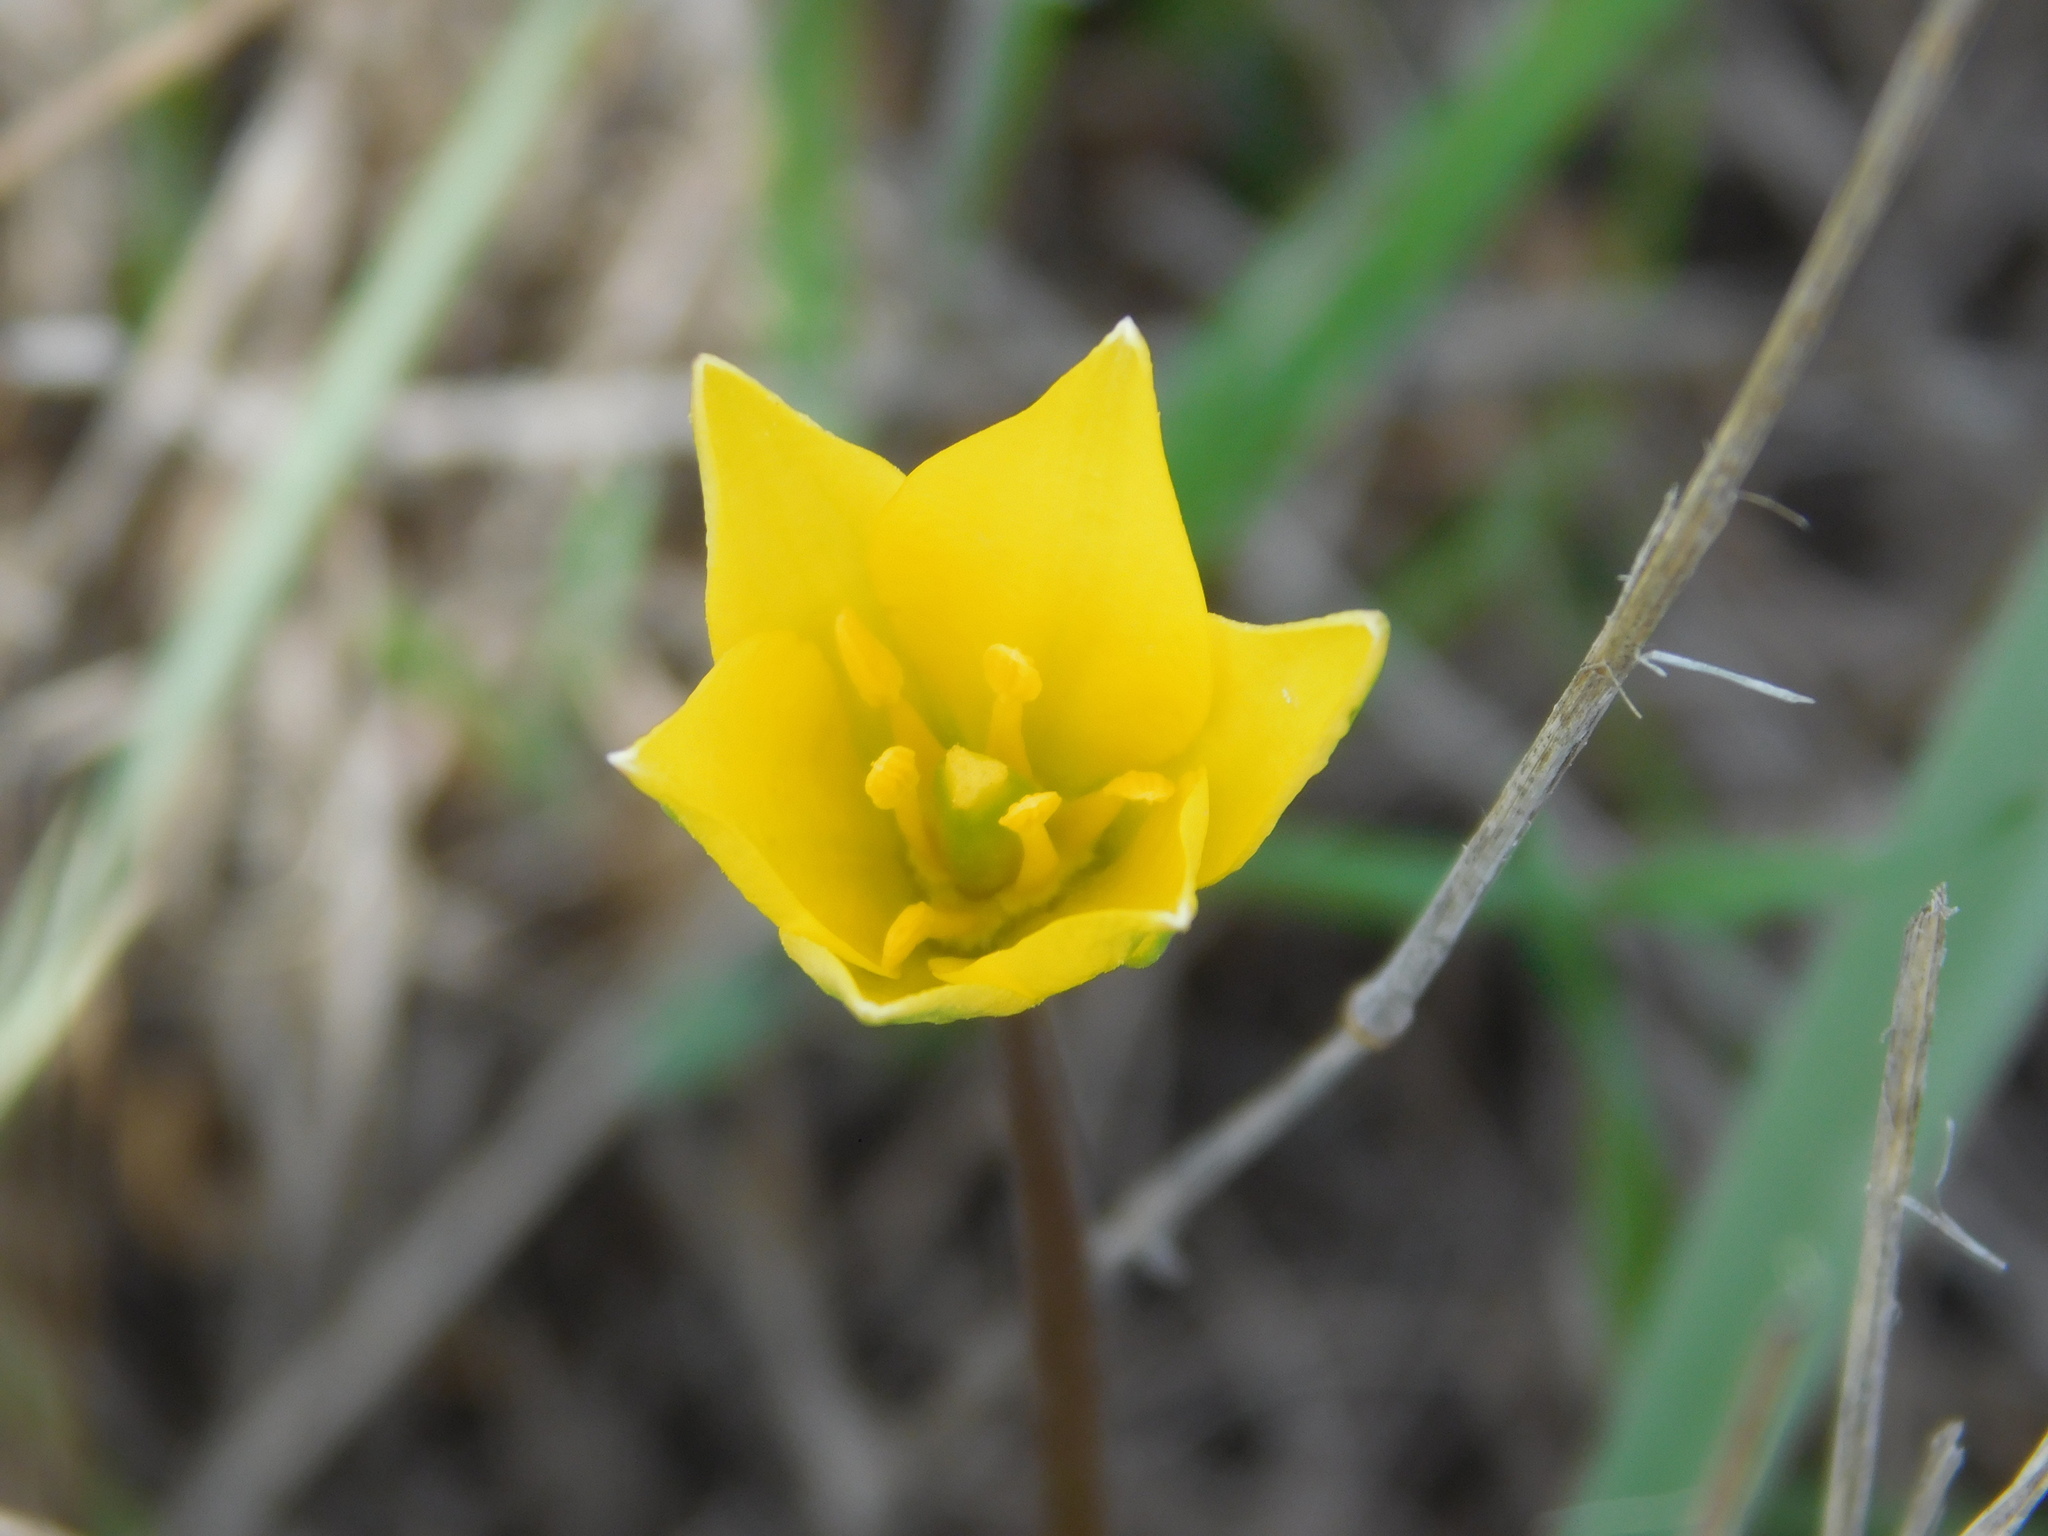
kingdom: Plantae
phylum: Tracheophyta
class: Liliopsida
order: Liliales
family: Liliaceae
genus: Tulipa
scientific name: Tulipa sylvestris
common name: Wild tulip
